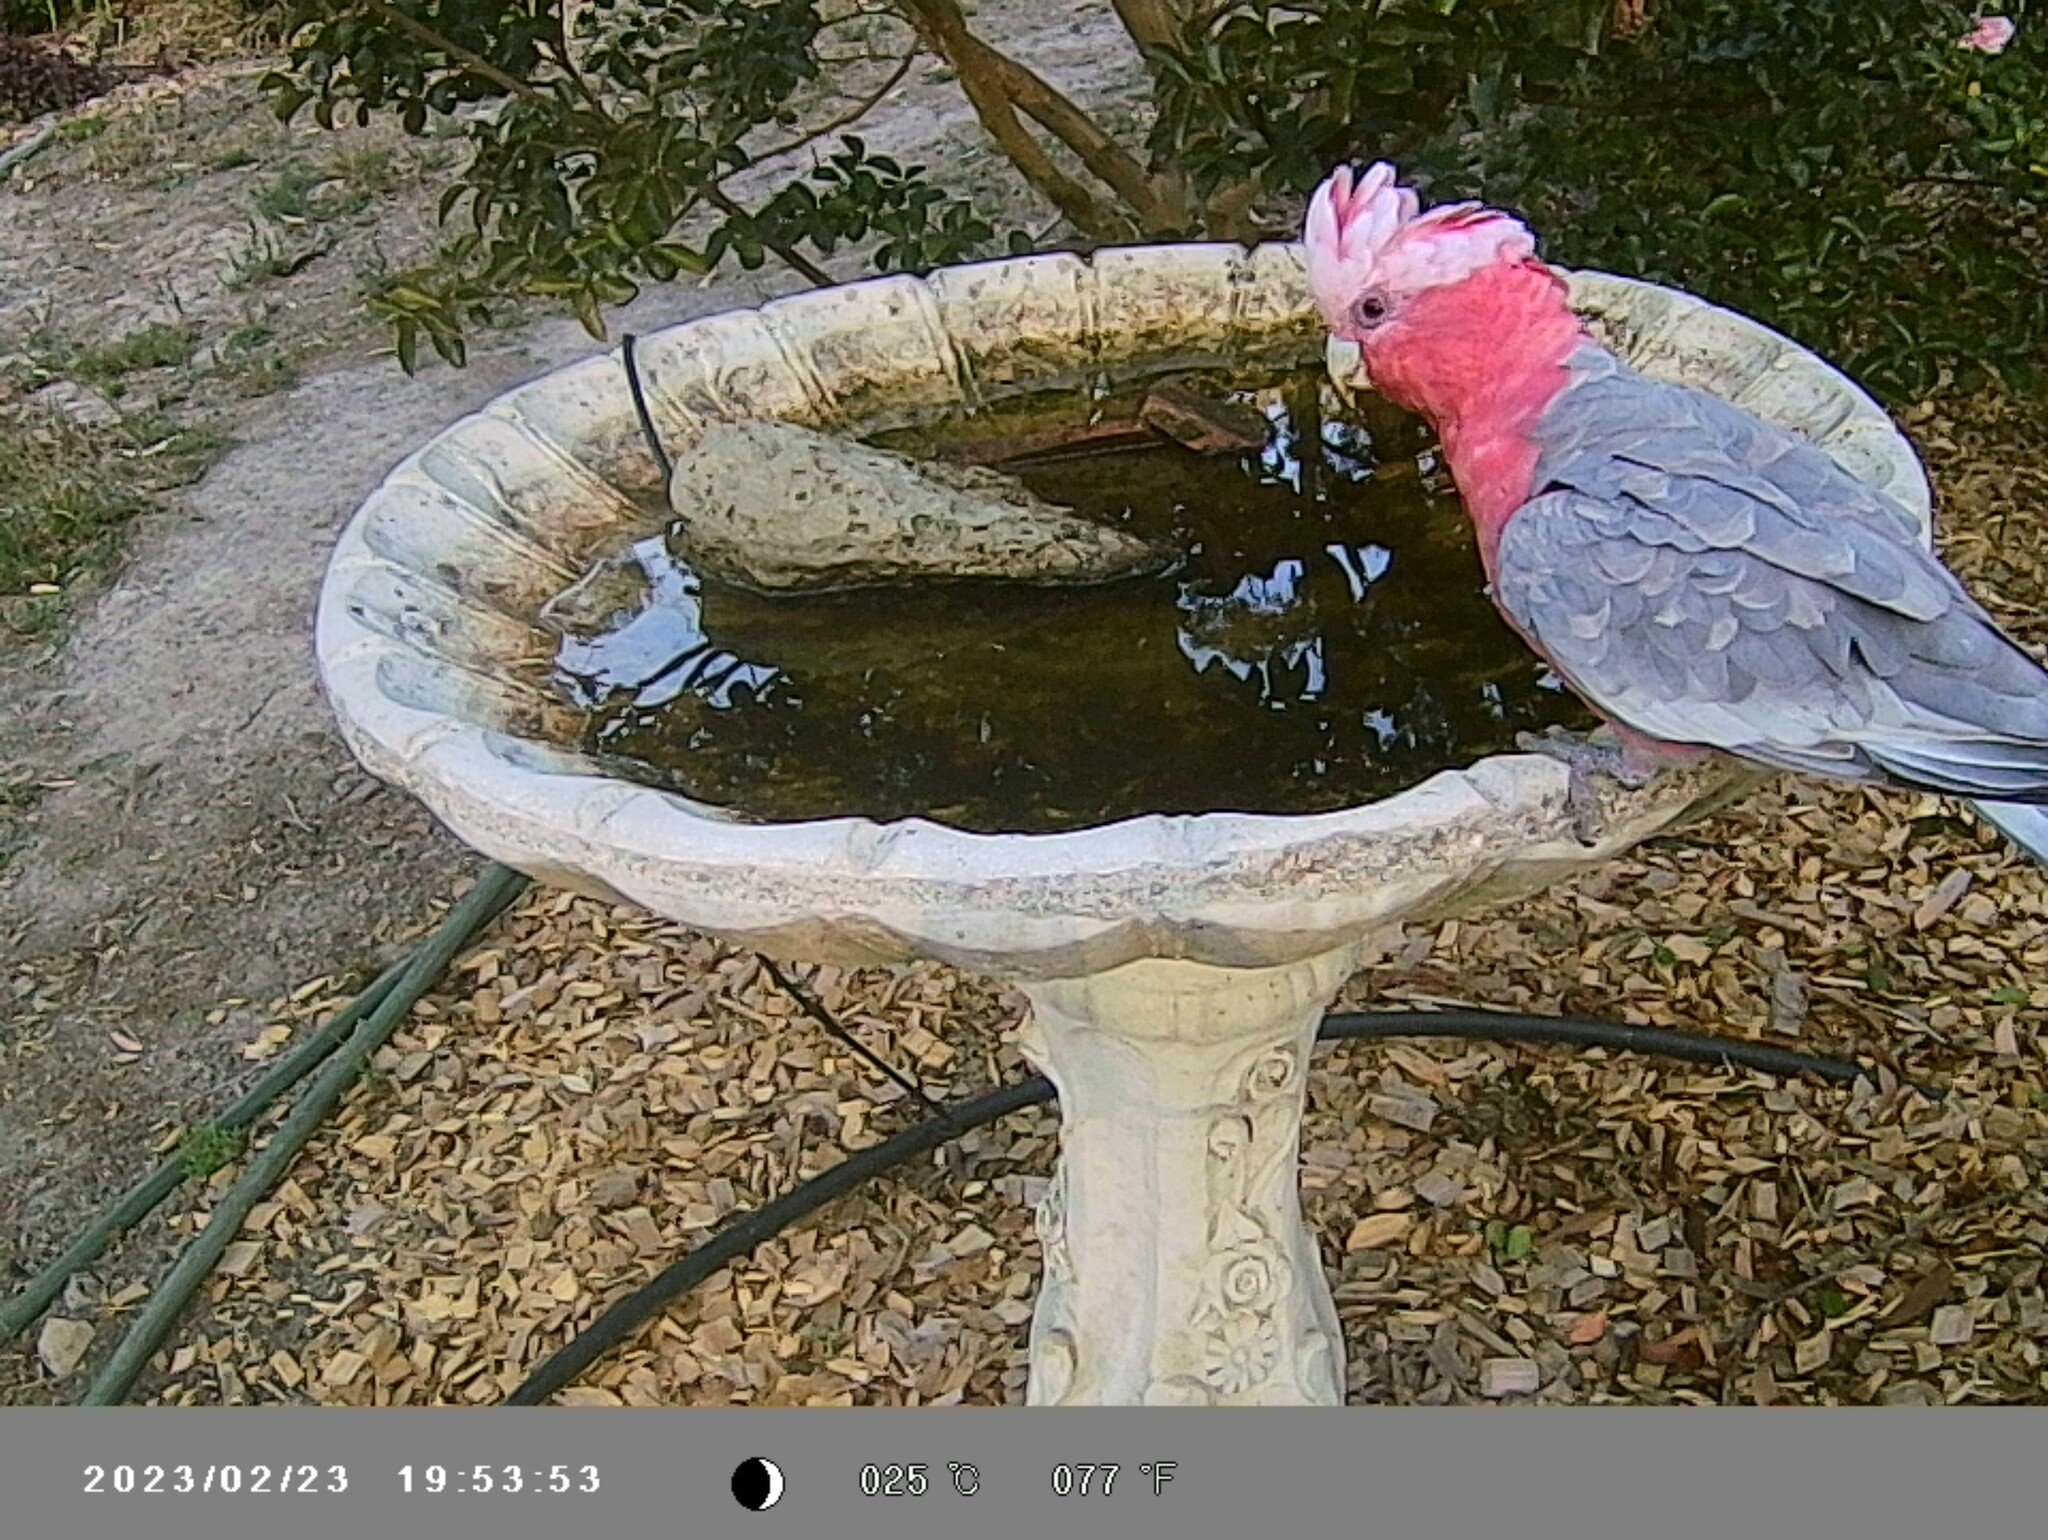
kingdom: Animalia
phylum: Chordata
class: Aves
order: Psittaciformes
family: Psittacidae
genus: Eolophus
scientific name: Eolophus roseicapilla
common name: Galah
